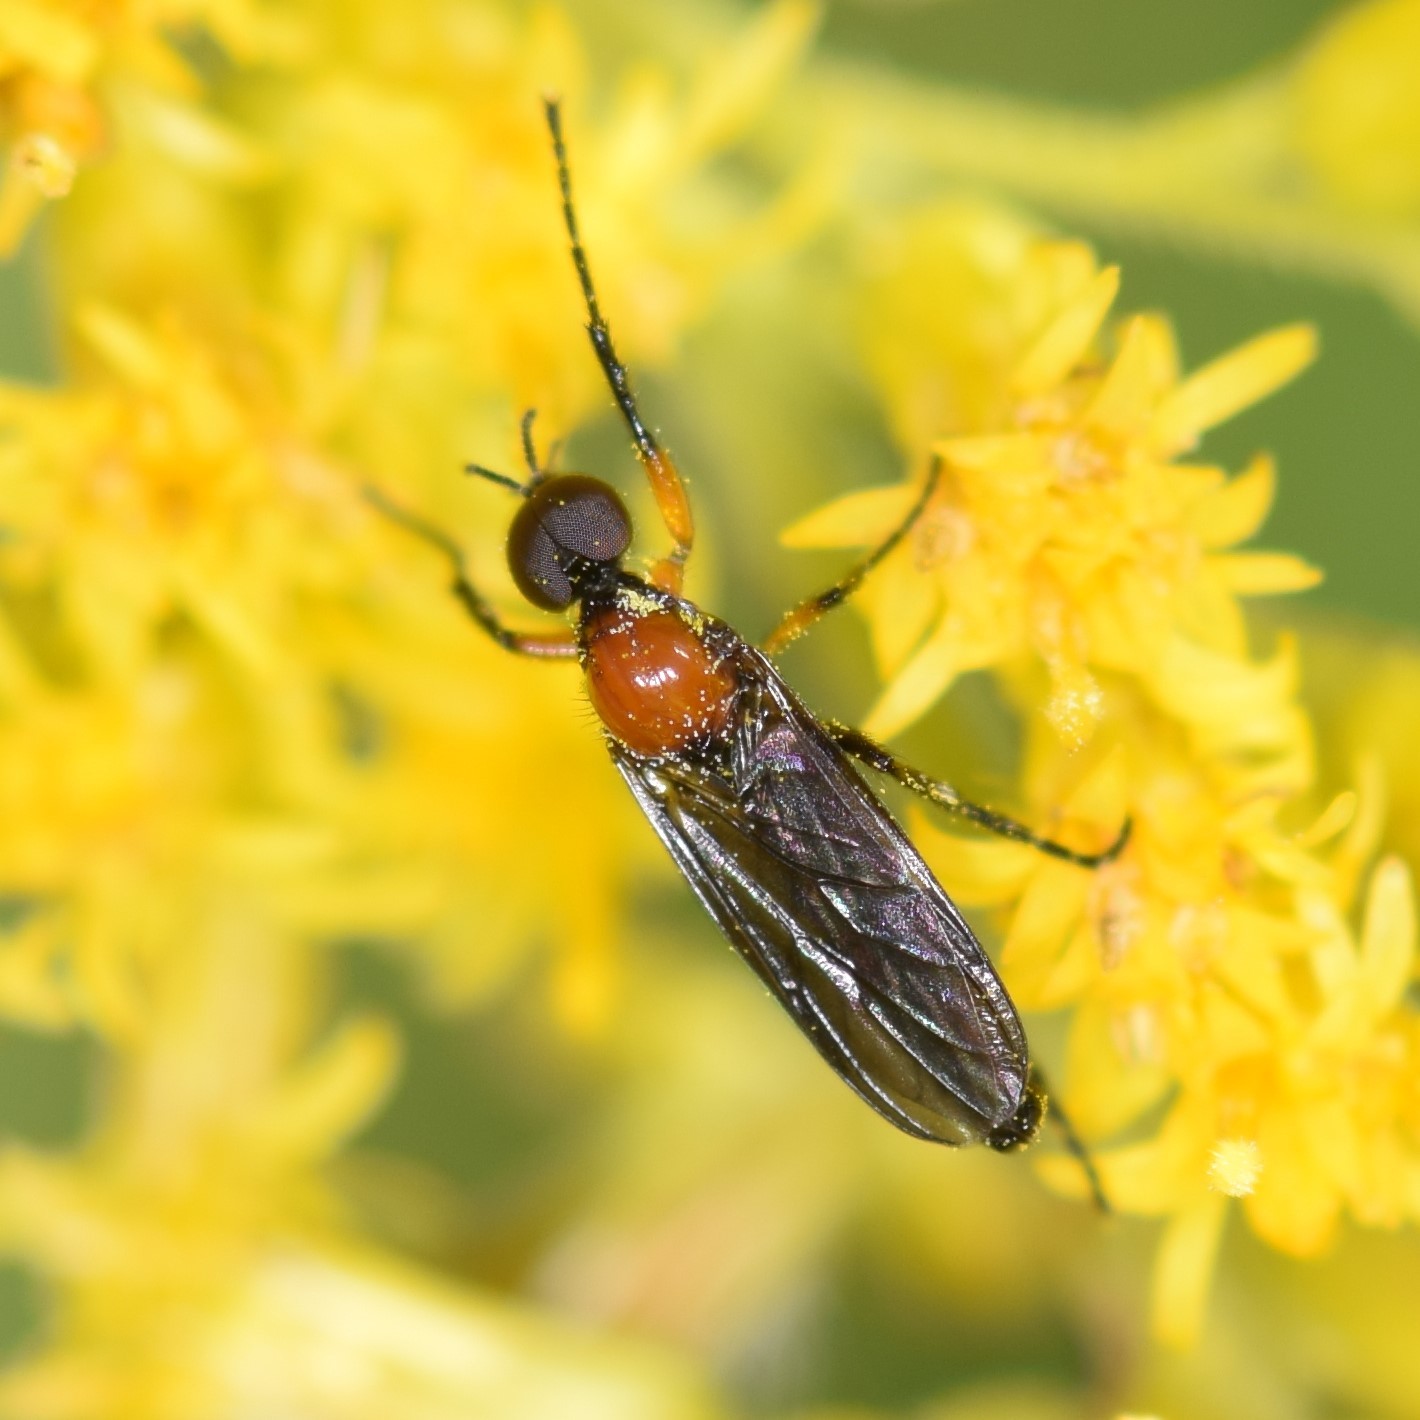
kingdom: Animalia
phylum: Arthropoda
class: Insecta
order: Diptera
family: Bibionidae
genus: Dilophus
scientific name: Dilophus spinipes
